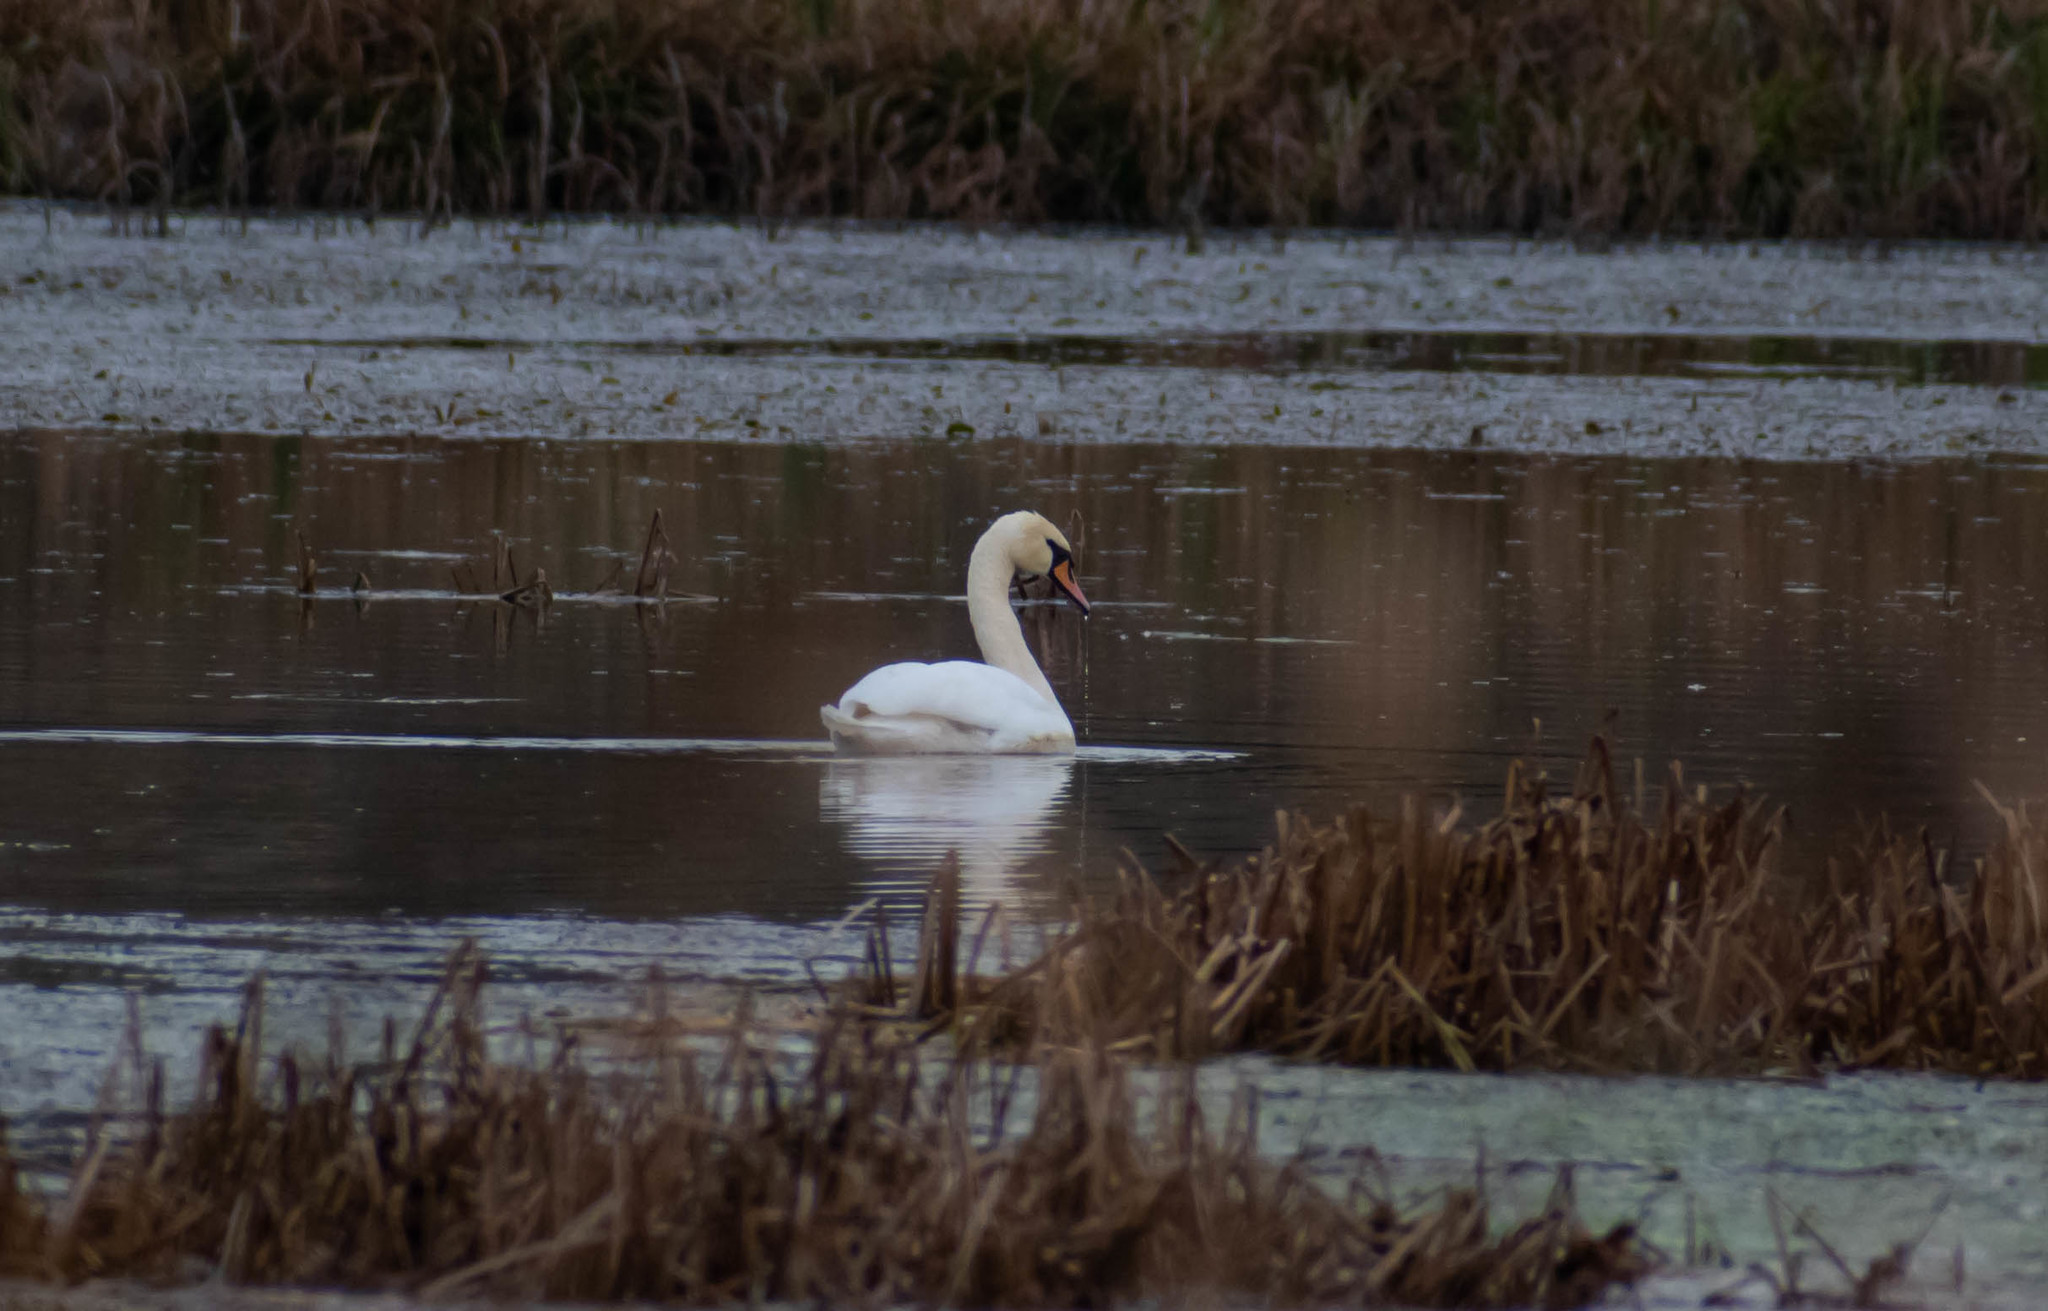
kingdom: Animalia
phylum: Chordata
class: Aves
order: Anseriformes
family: Anatidae
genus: Cygnus
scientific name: Cygnus olor
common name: Mute swan
